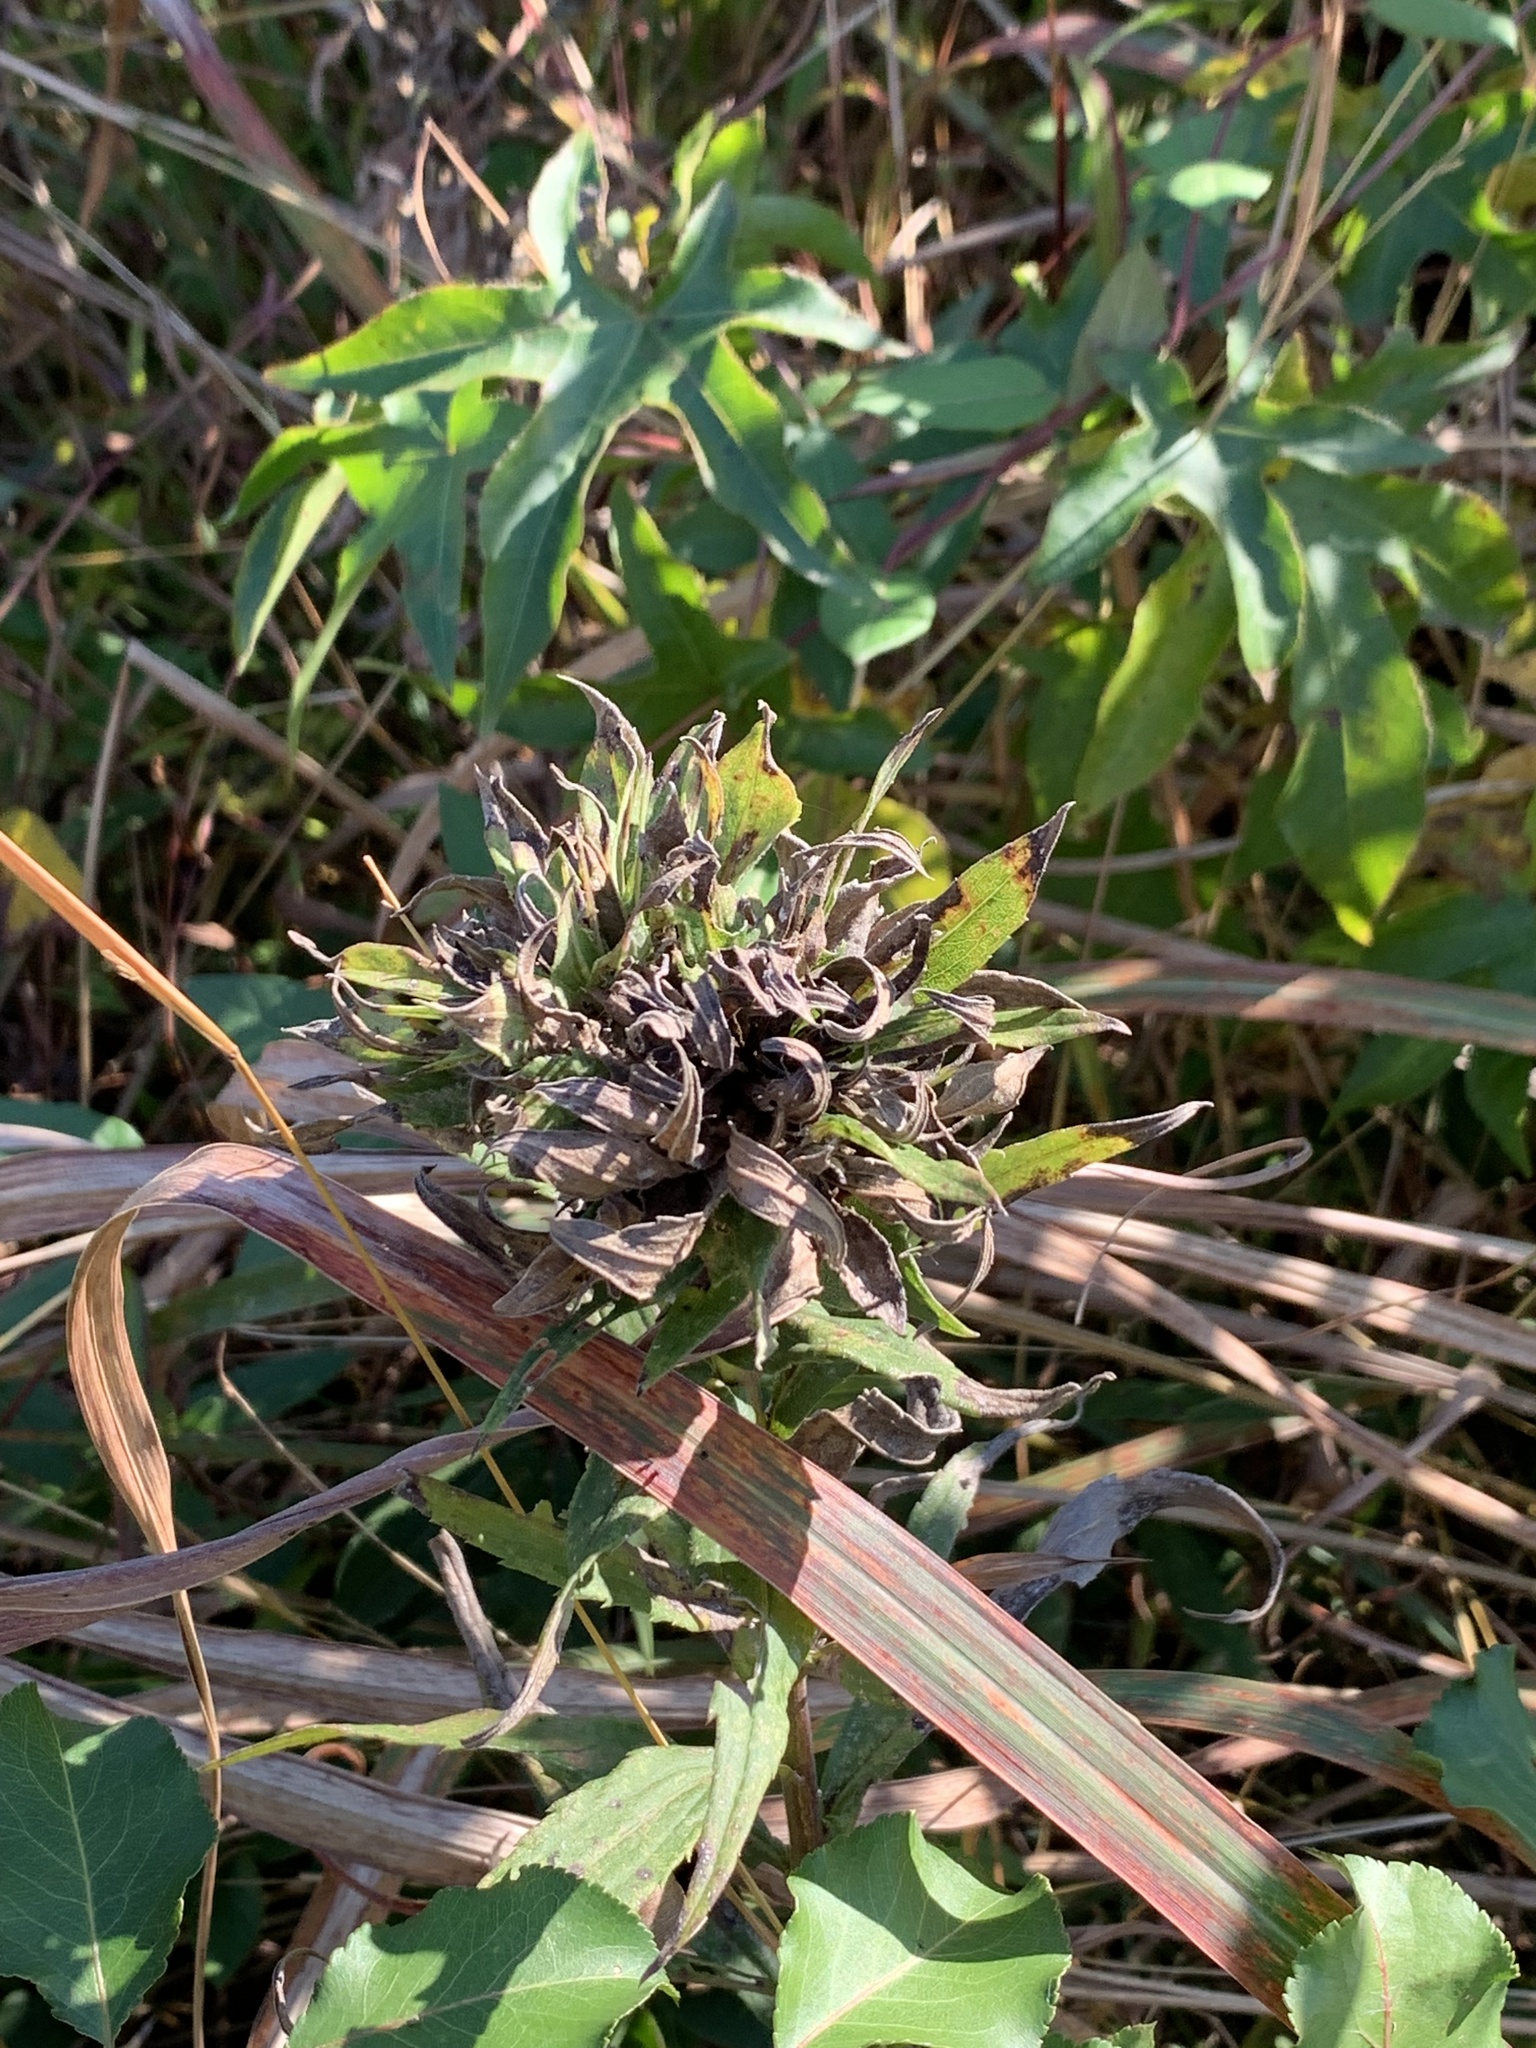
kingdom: Animalia
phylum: Arthropoda
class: Insecta
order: Diptera
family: Cecidomyiidae
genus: Rhopalomyia
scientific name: Rhopalomyia solidaginis
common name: Goldenrod bunch gall midge
